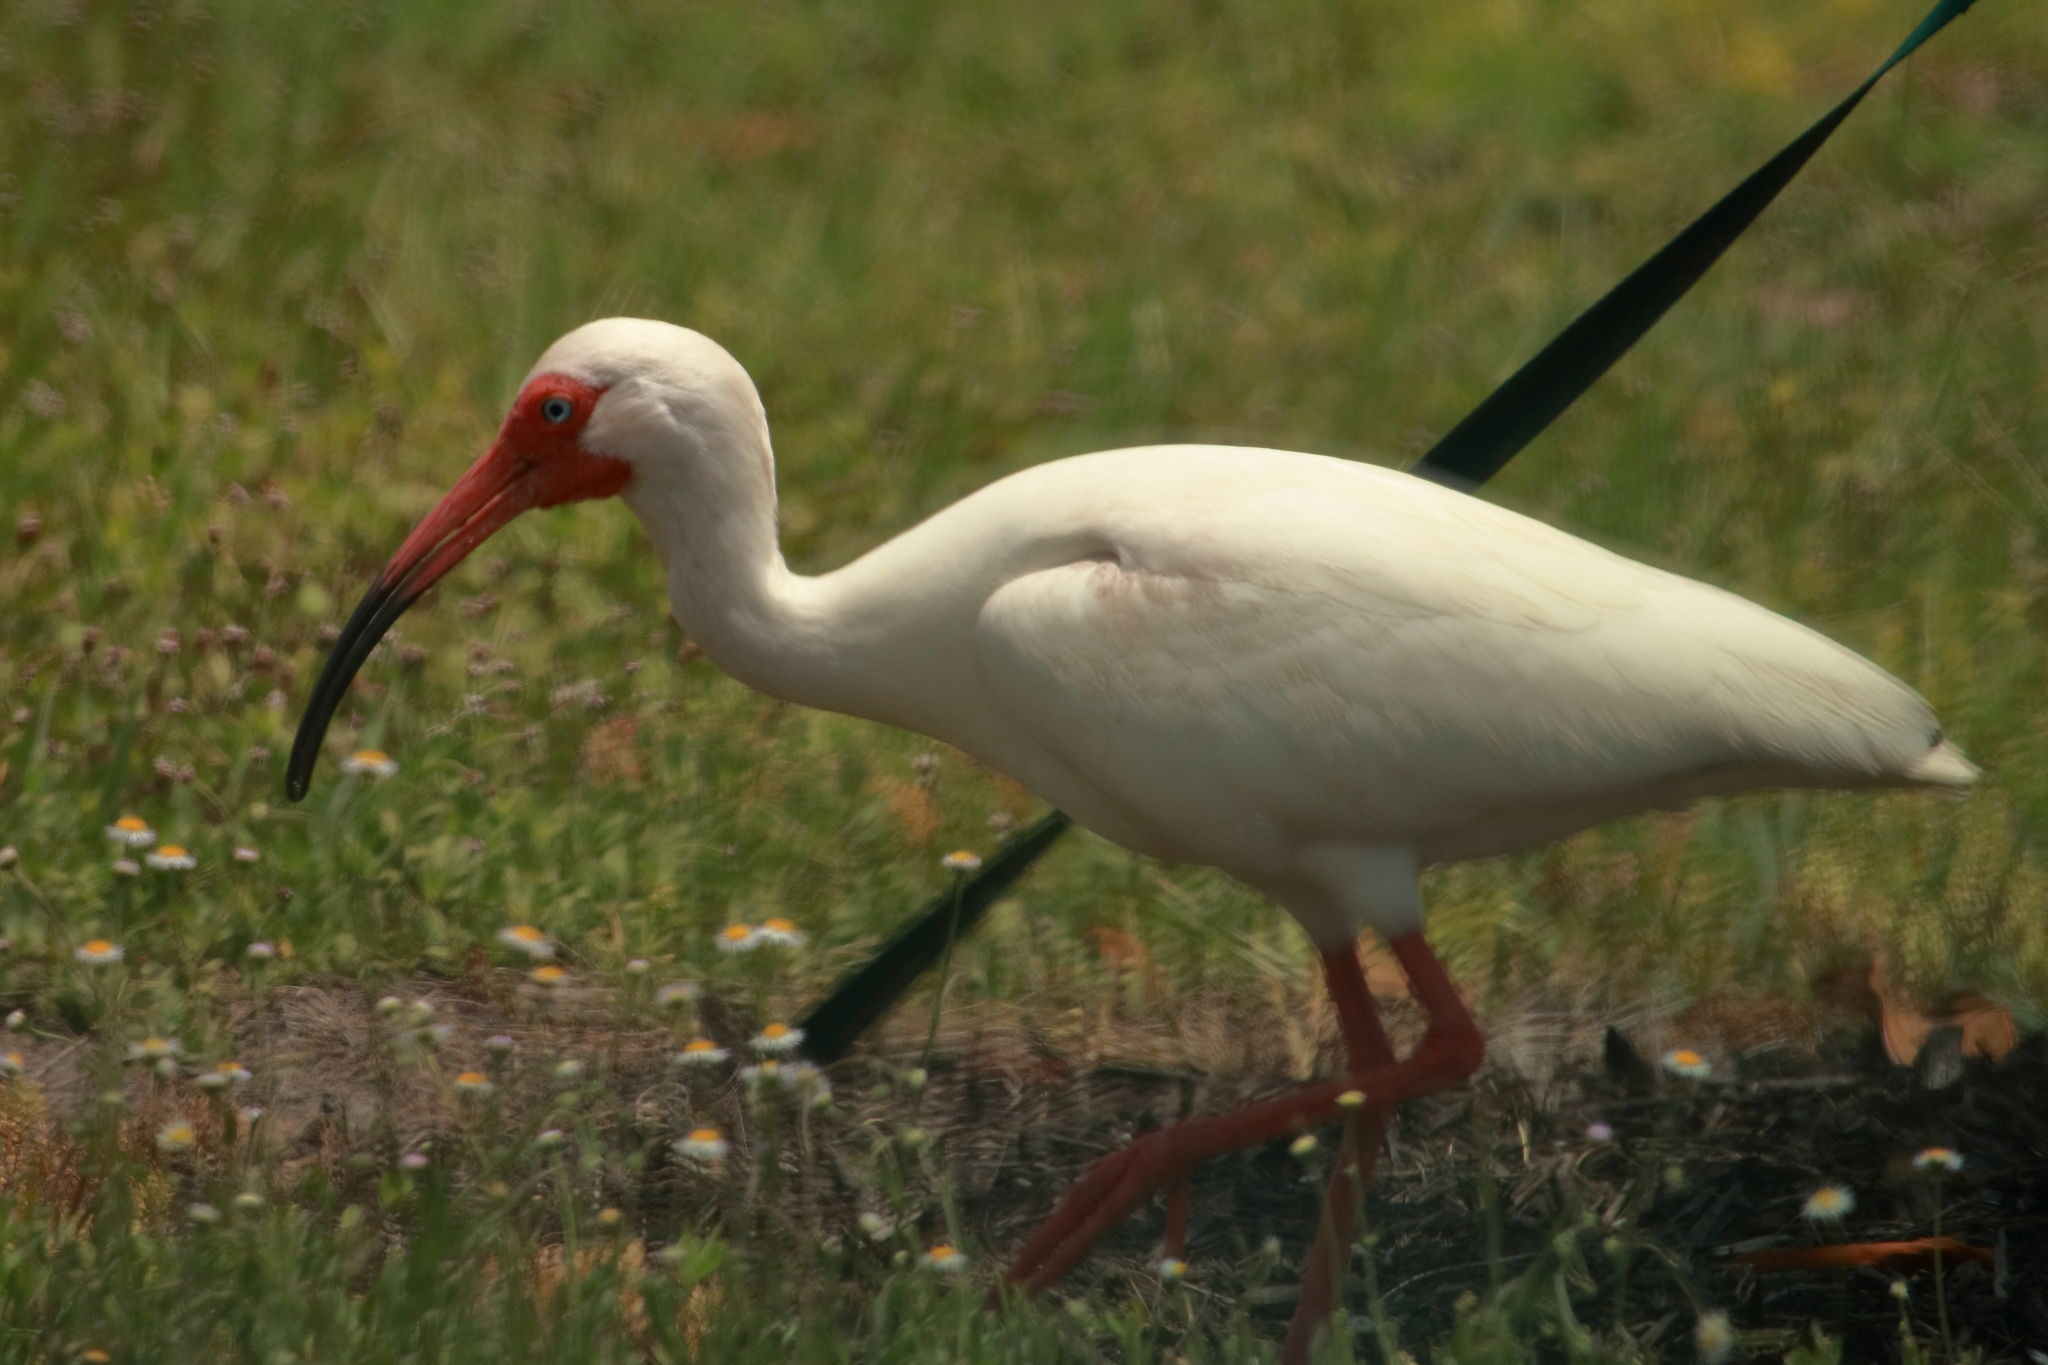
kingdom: Animalia
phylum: Chordata
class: Aves
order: Pelecaniformes
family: Threskiornithidae
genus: Eudocimus
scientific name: Eudocimus albus
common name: White ibis
